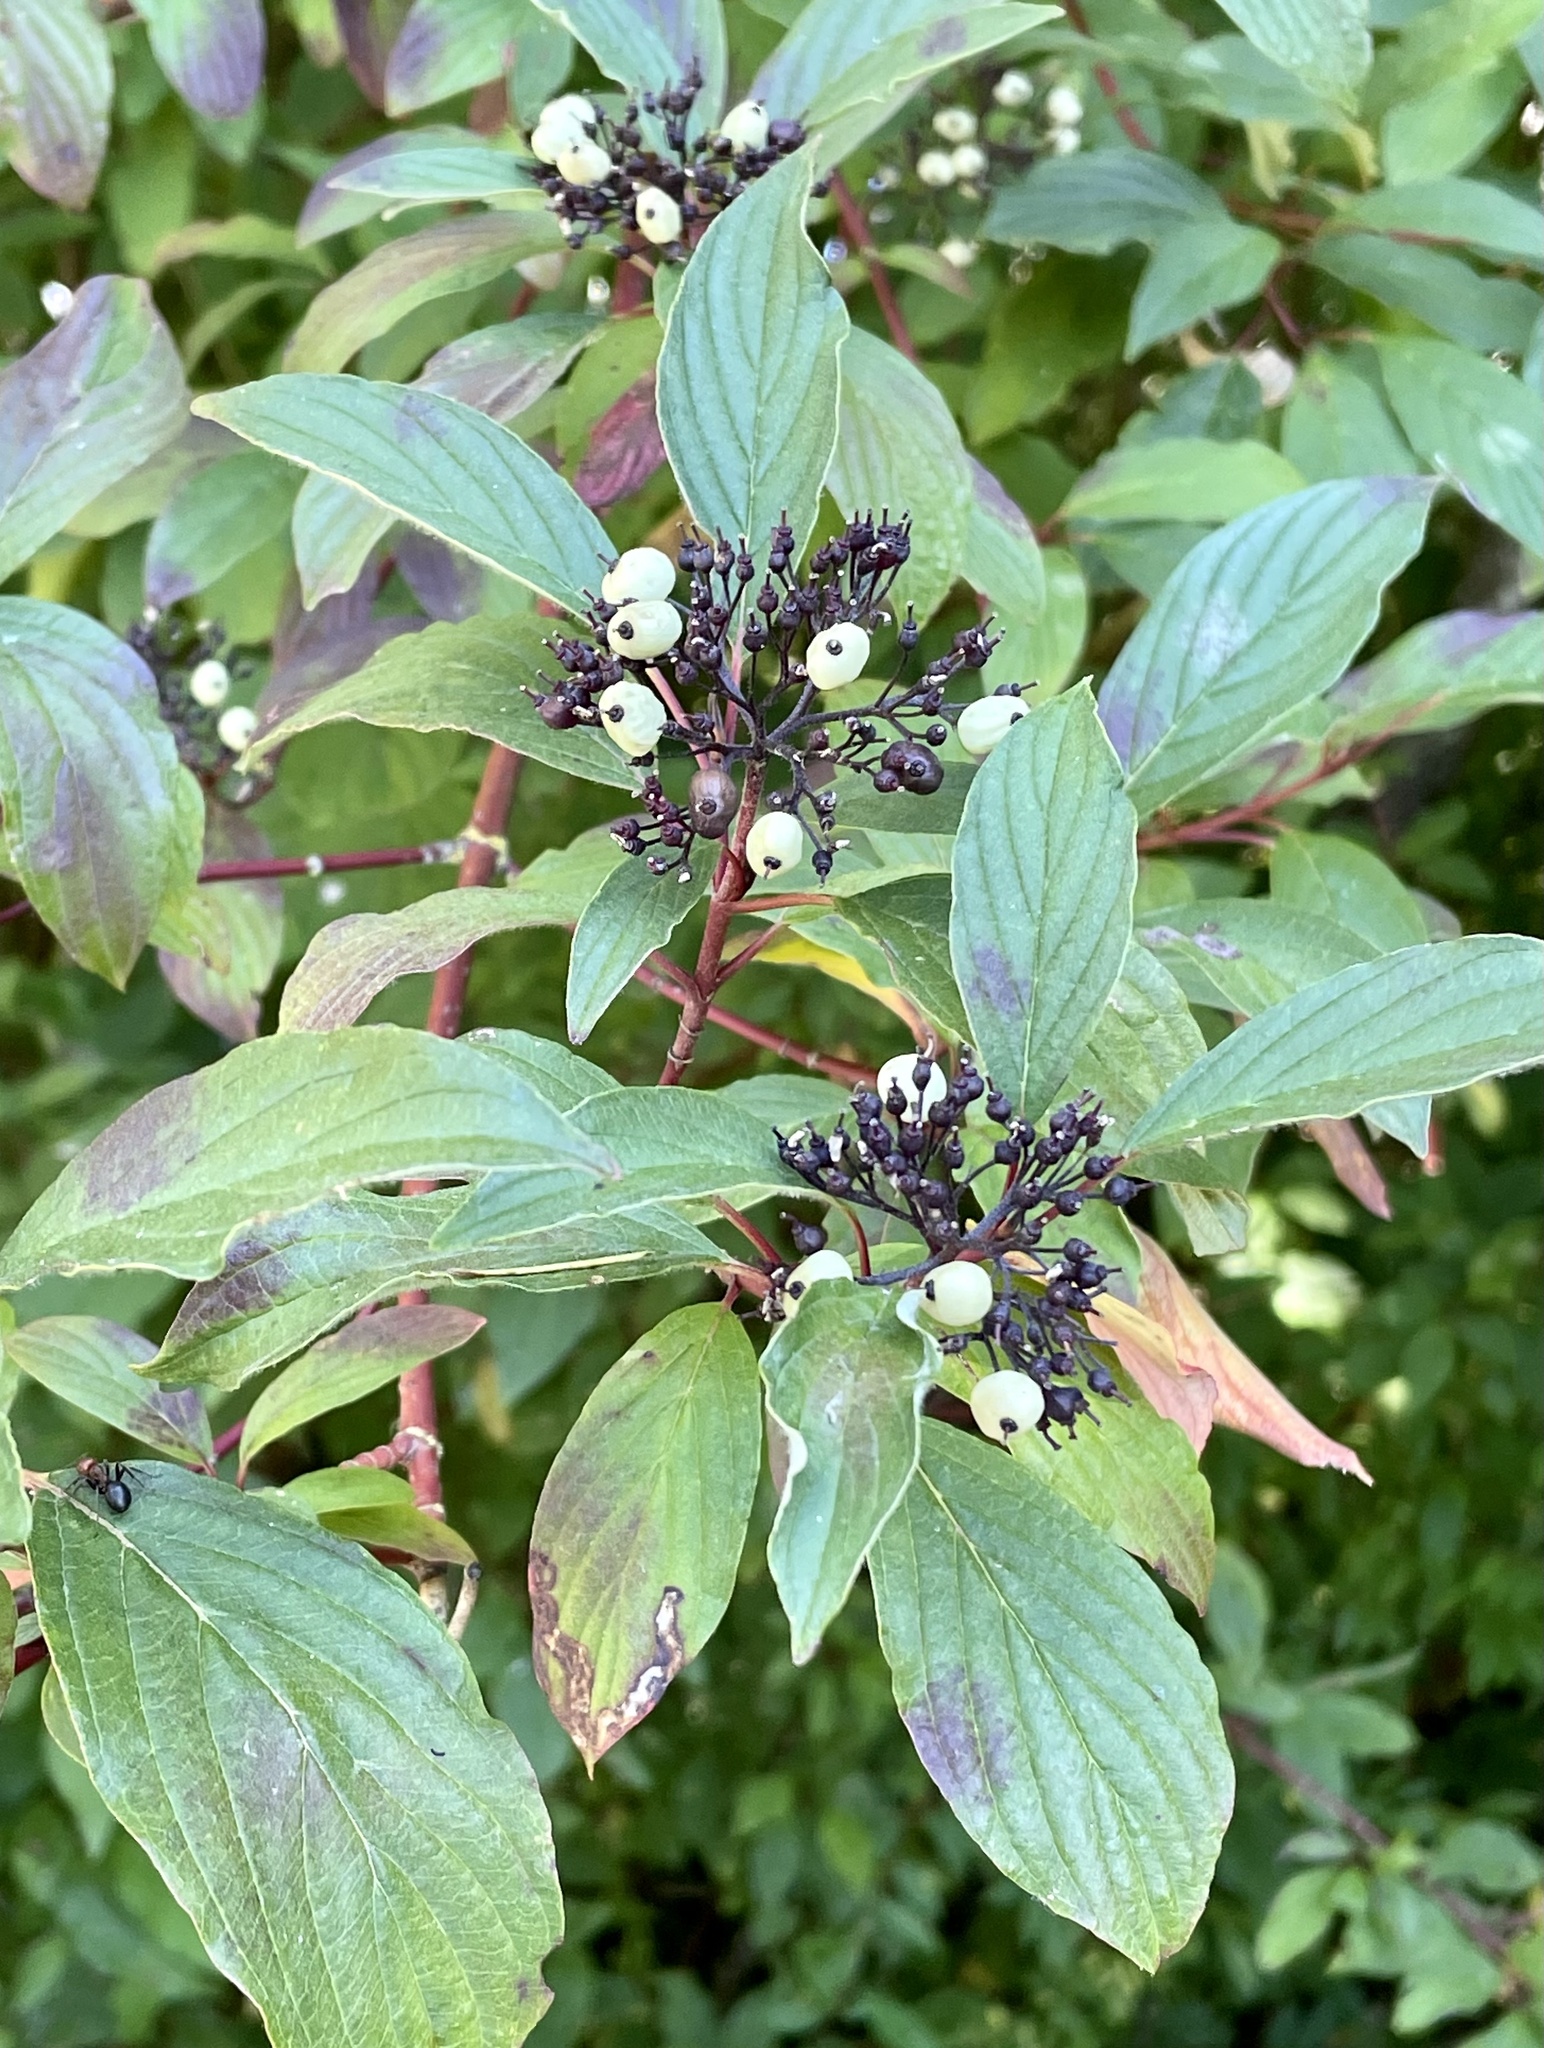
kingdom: Plantae
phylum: Tracheophyta
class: Magnoliopsida
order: Cornales
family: Cornaceae
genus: Cornus
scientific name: Cornus sericea
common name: Red-osier dogwood
